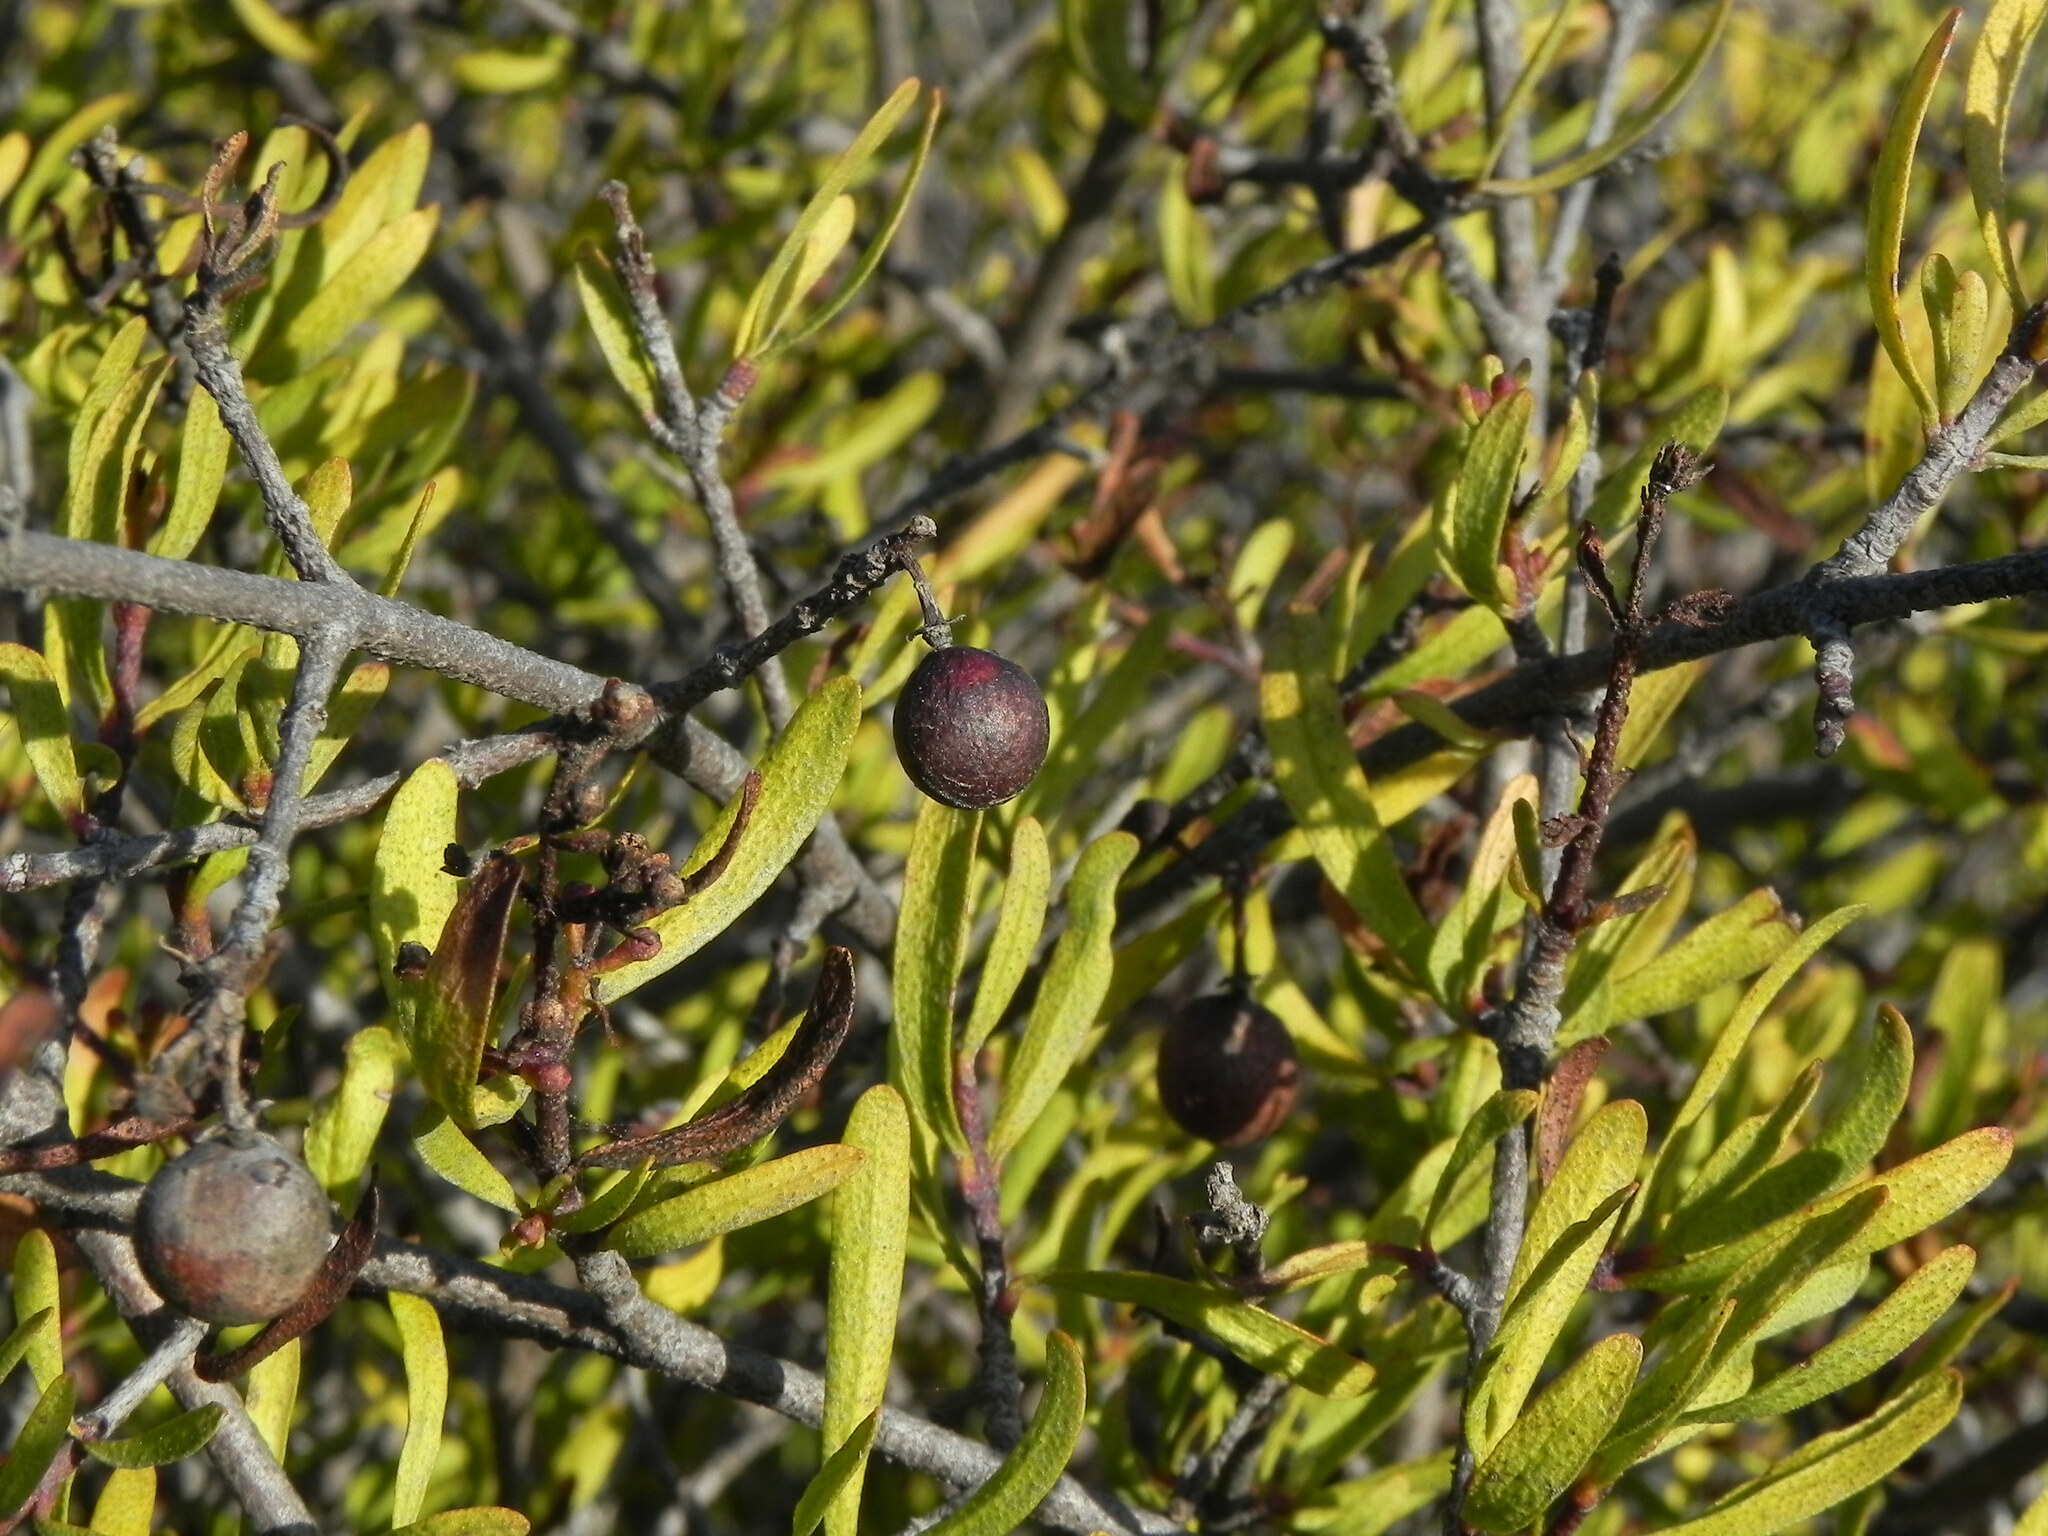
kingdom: Plantae
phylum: Tracheophyta
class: Magnoliopsida
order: Sapindales
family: Rutaceae
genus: Cneoridium
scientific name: Cneoridium dumosum
